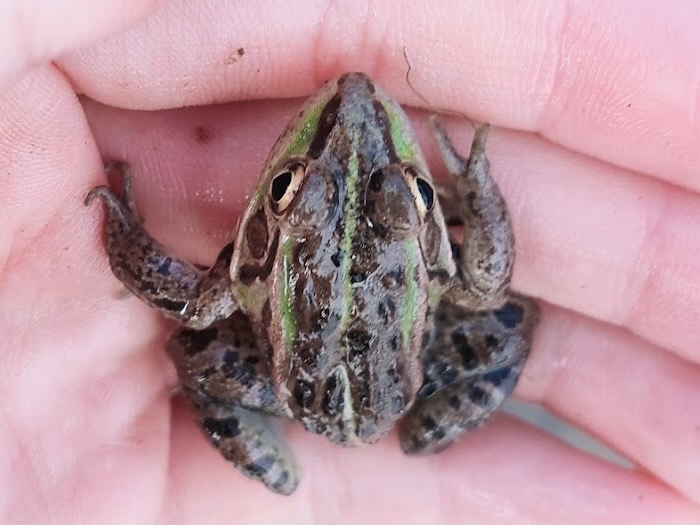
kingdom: Animalia
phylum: Chordata
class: Amphibia
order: Anura
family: Ranidae
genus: Pelophylax
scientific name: Pelophylax nigromaculatus
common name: Black-spotted pond frog
